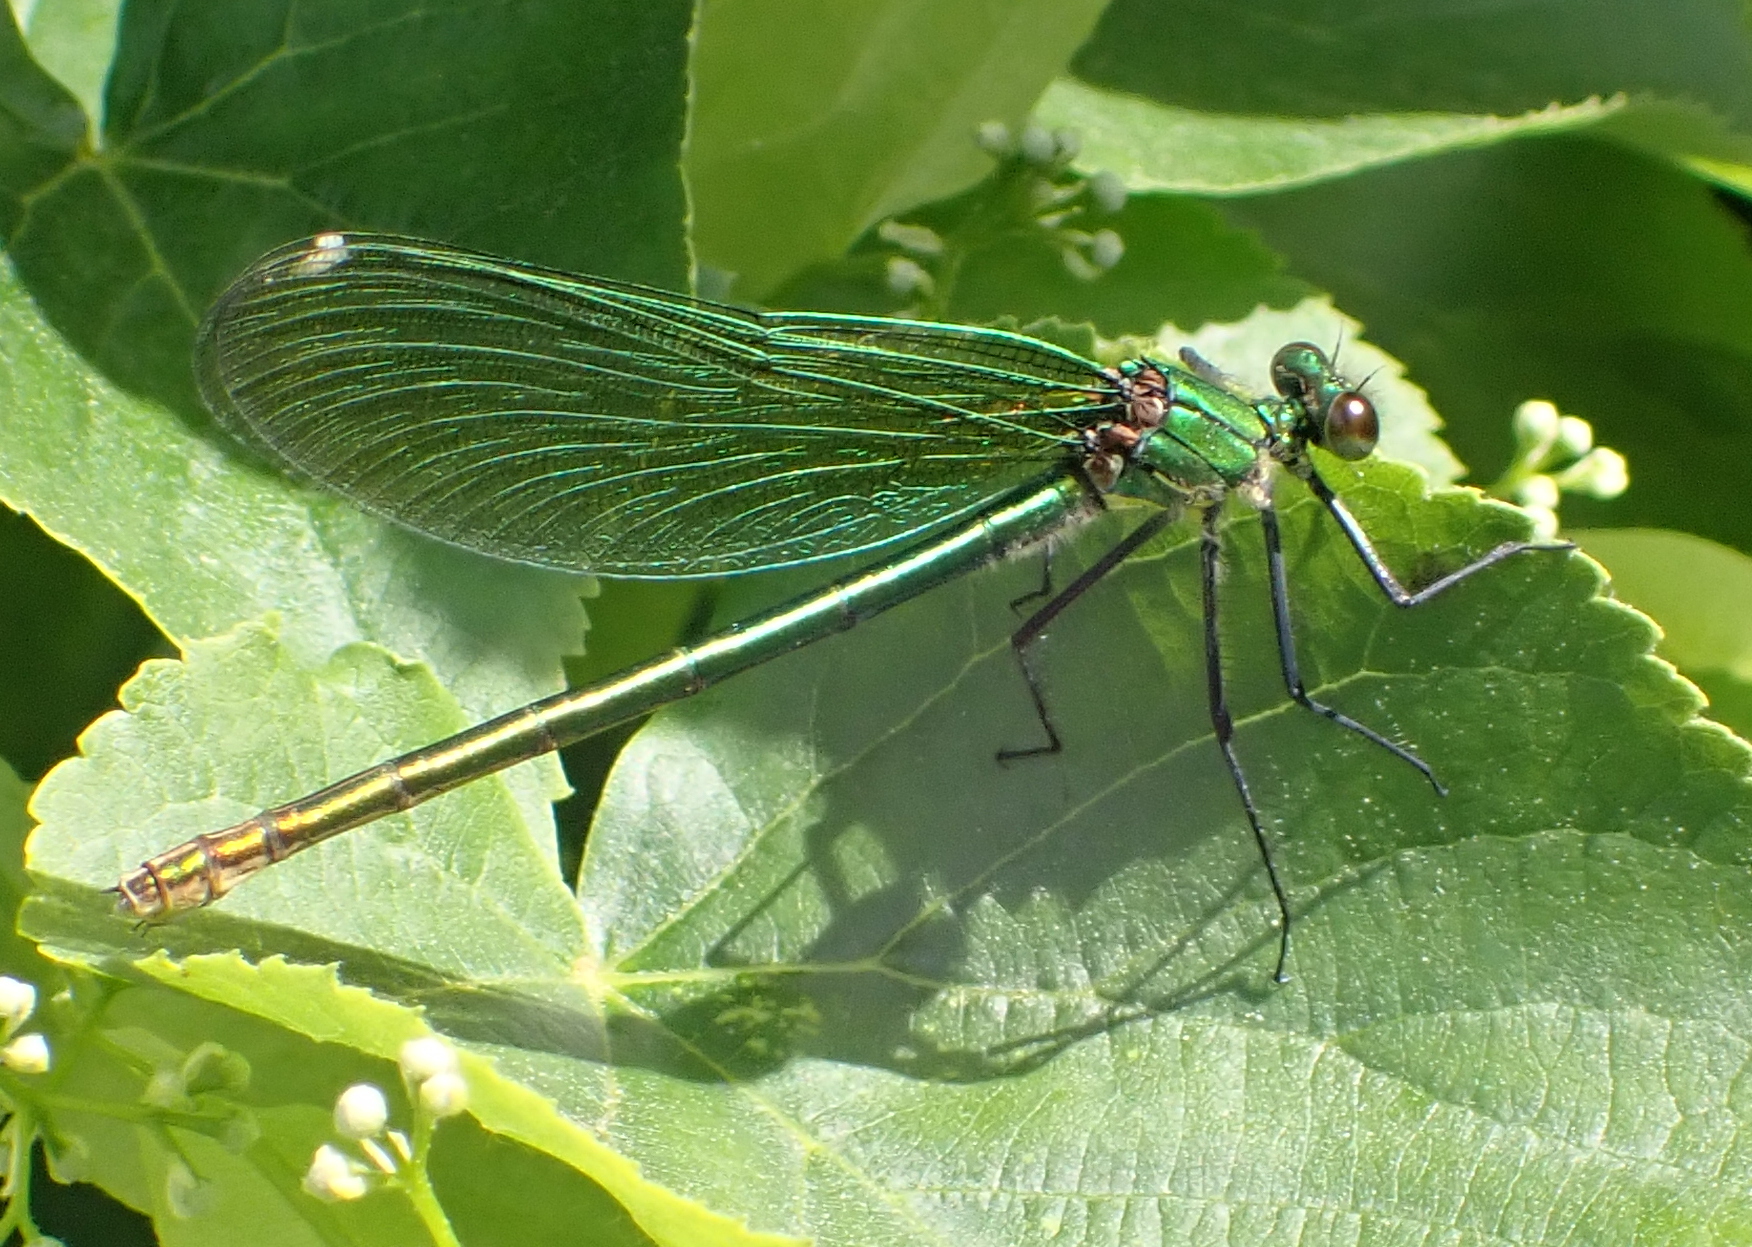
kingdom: Animalia
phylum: Arthropoda
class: Insecta
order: Odonata
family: Calopterygidae
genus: Calopteryx
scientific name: Calopteryx splendens
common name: Banded demoiselle
